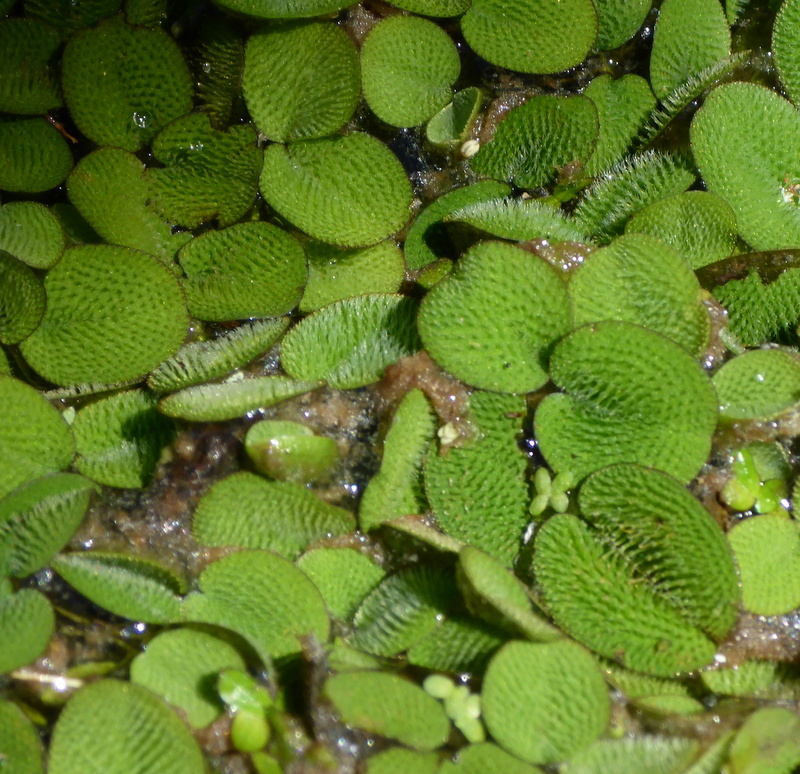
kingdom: Plantae
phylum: Tracheophyta
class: Polypodiopsida
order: Salviniales
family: Salviniaceae
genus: Salvinia
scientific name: Salvinia minima
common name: Water spangles
